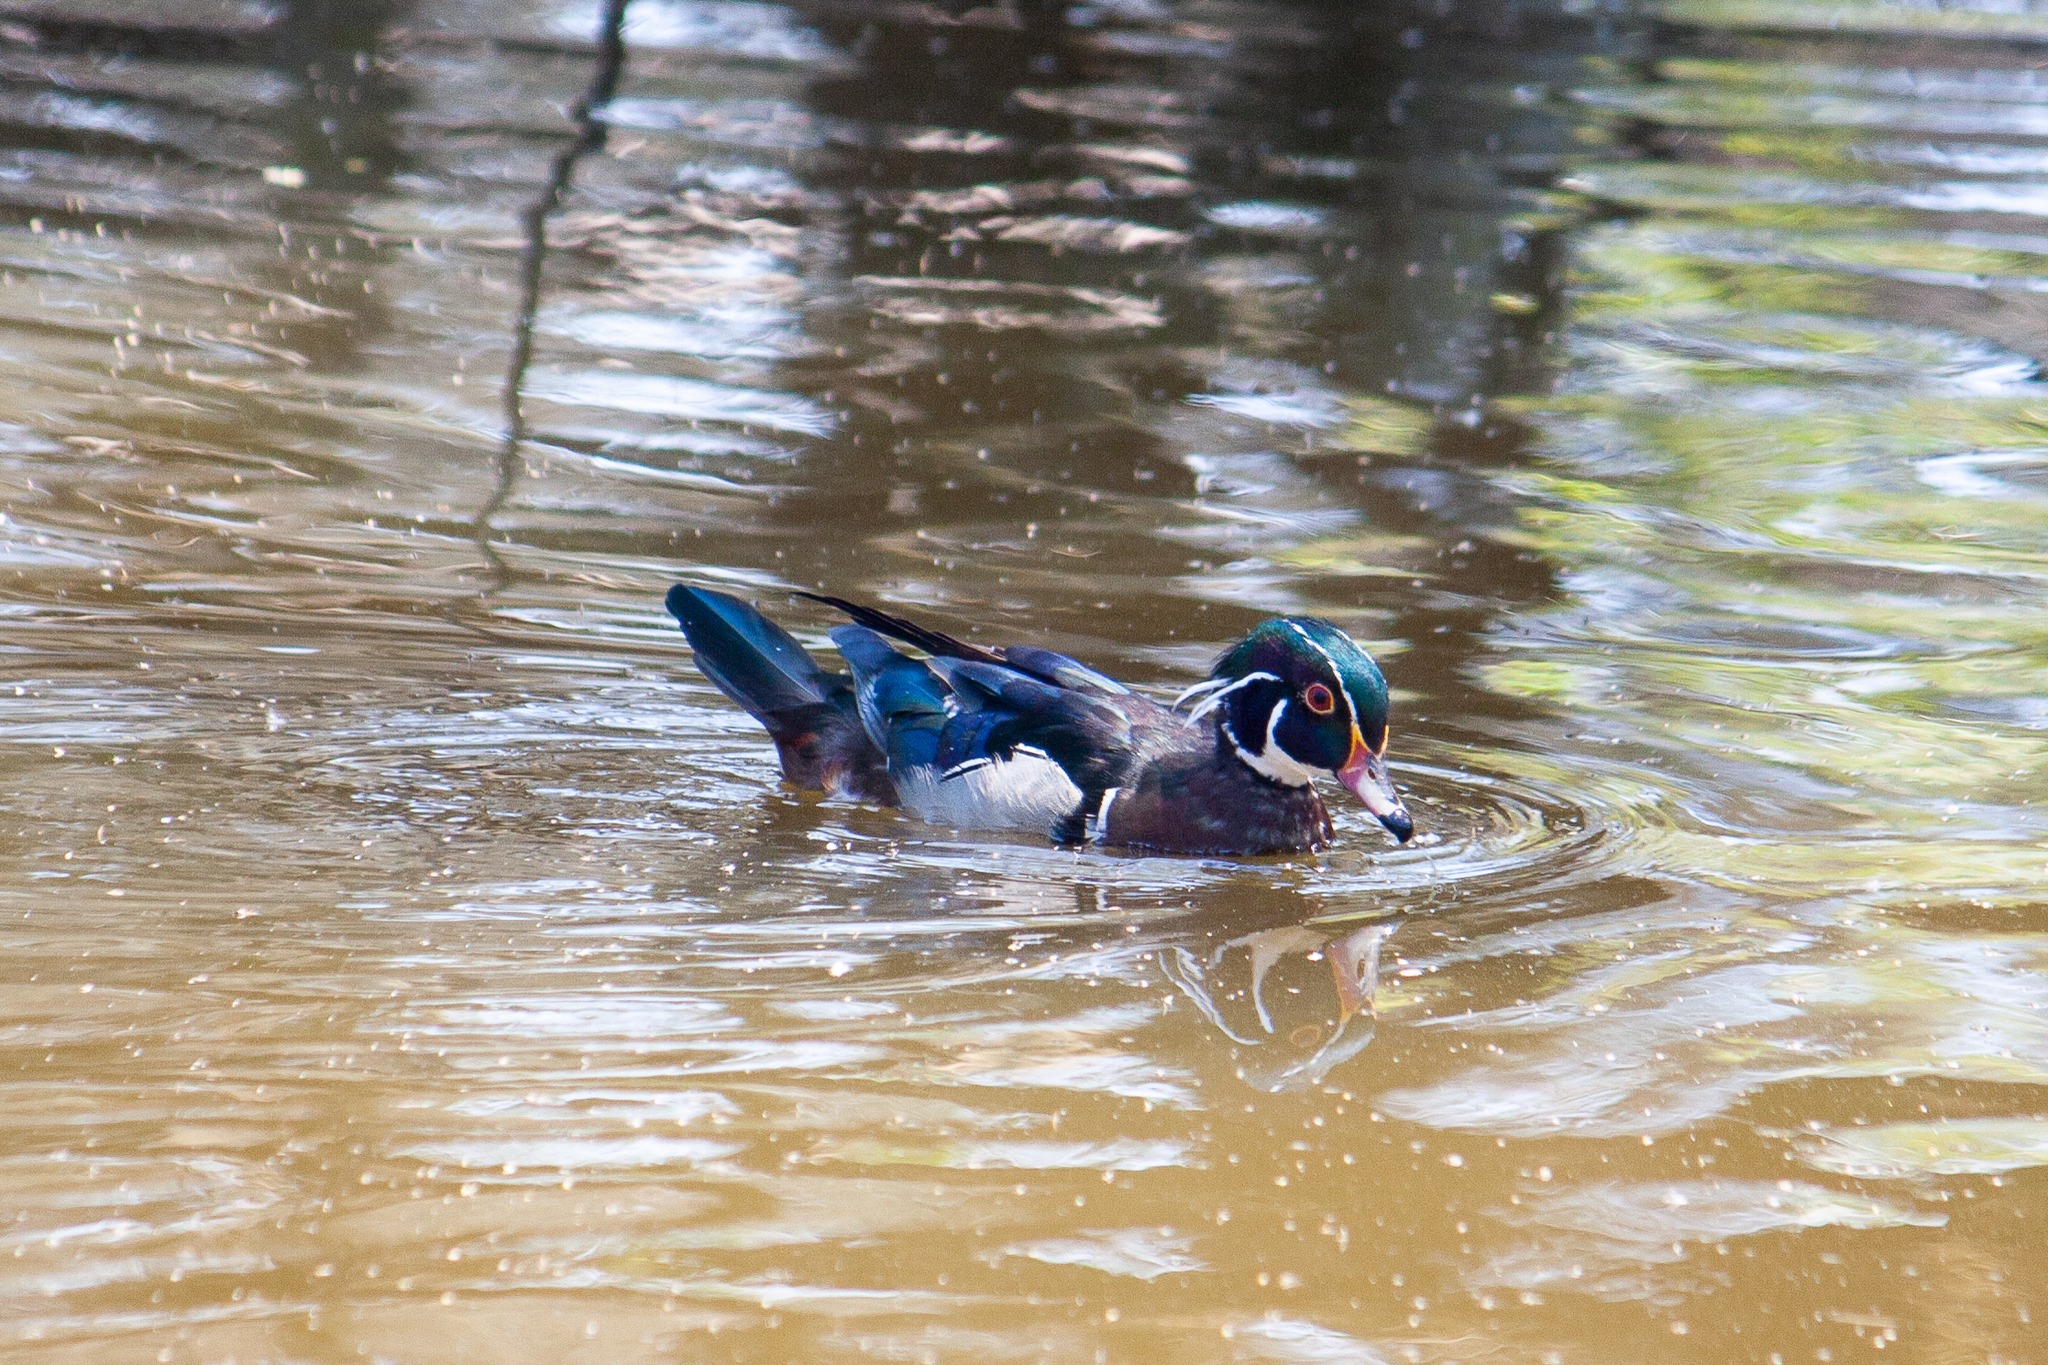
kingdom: Animalia
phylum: Chordata
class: Aves
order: Anseriformes
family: Anatidae
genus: Aix
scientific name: Aix sponsa
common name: Wood duck
